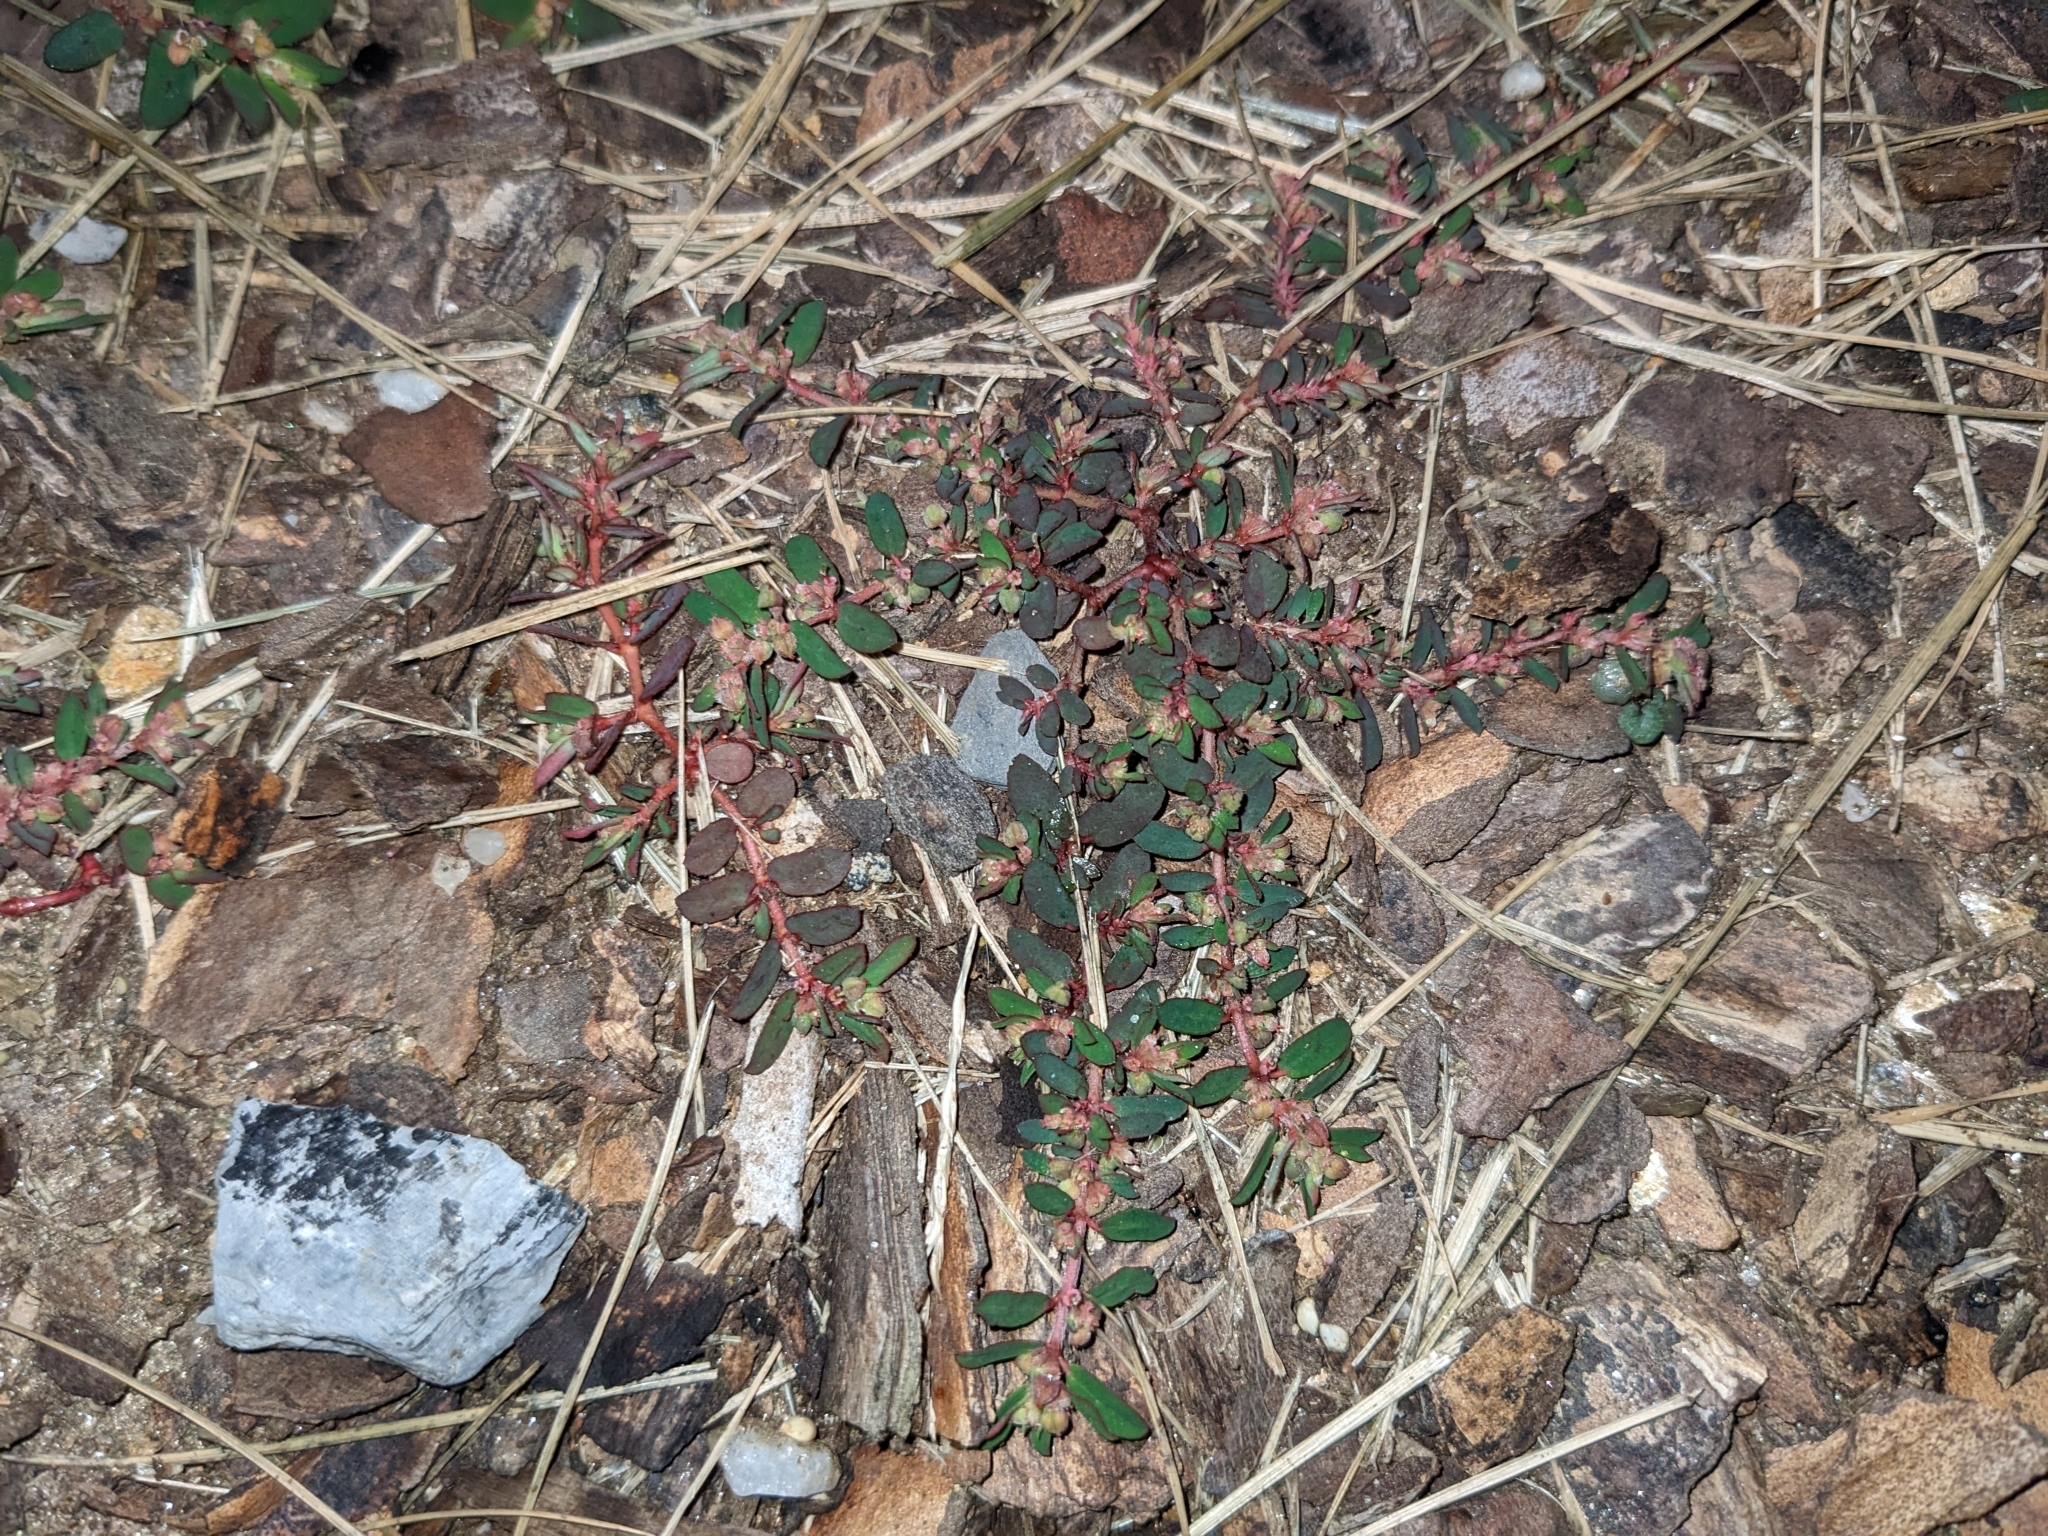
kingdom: Plantae
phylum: Tracheophyta
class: Magnoliopsida
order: Malpighiales
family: Euphorbiaceae
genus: Euphorbia
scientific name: Euphorbia maculata
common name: Spotted spurge
